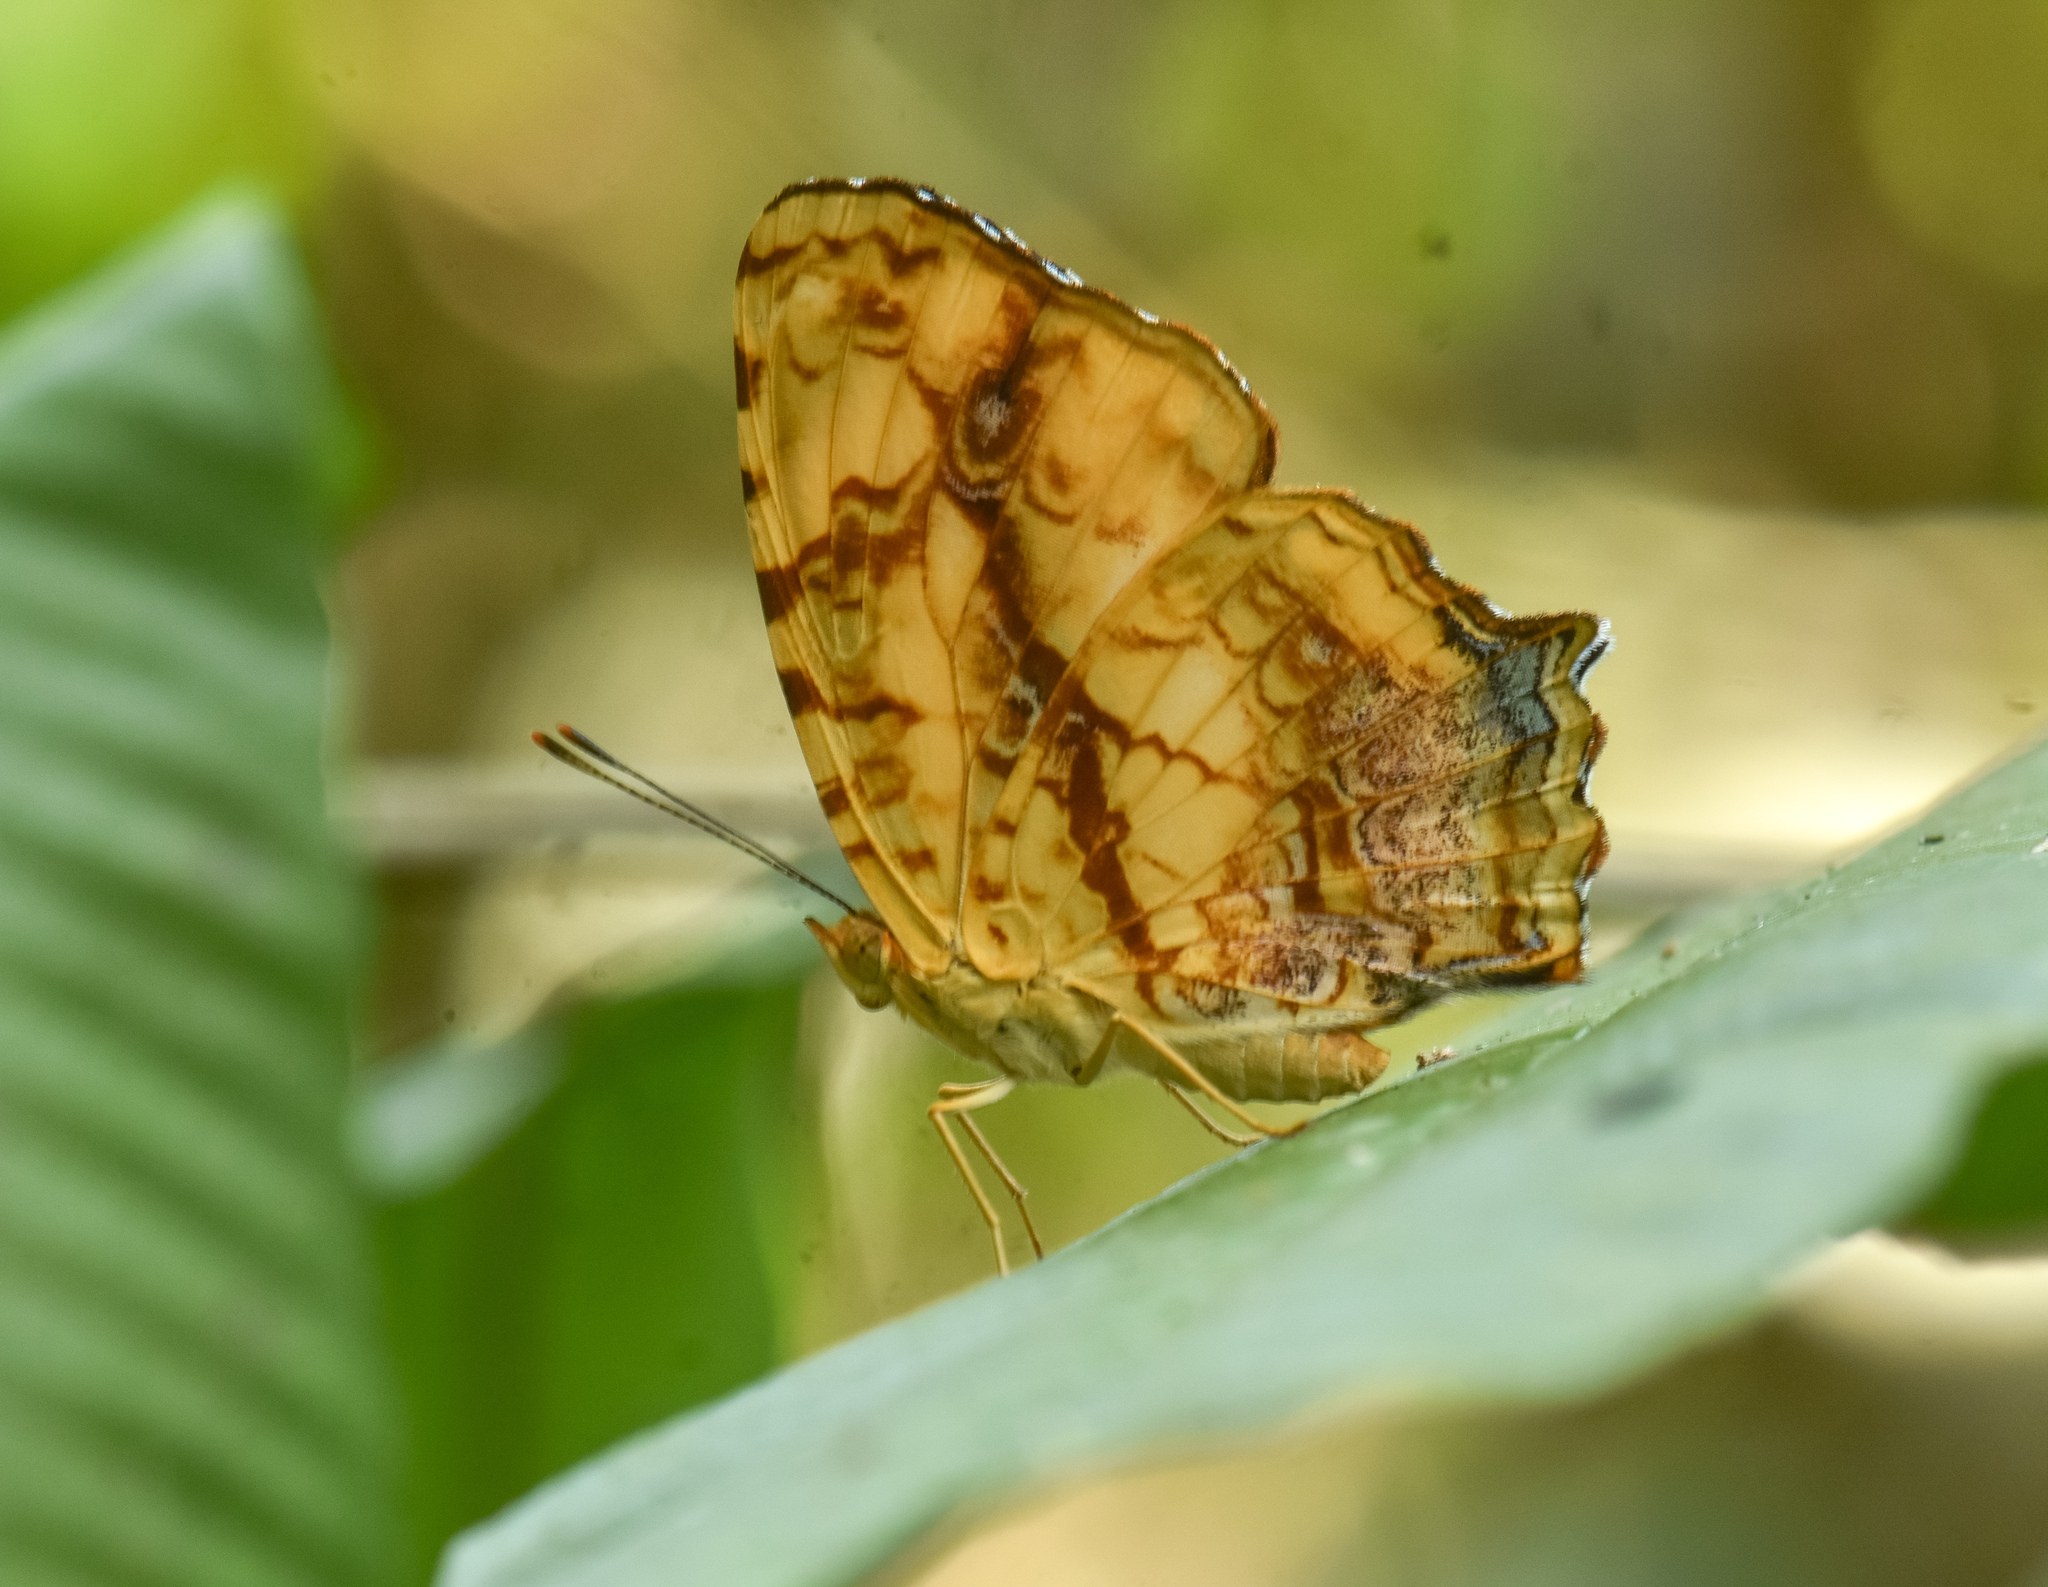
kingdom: Animalia
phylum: Arthropoda
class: Insecta
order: Lepidoptera
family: Nymphalidae
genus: Symbrenthia
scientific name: Symbrenthia hypselis
